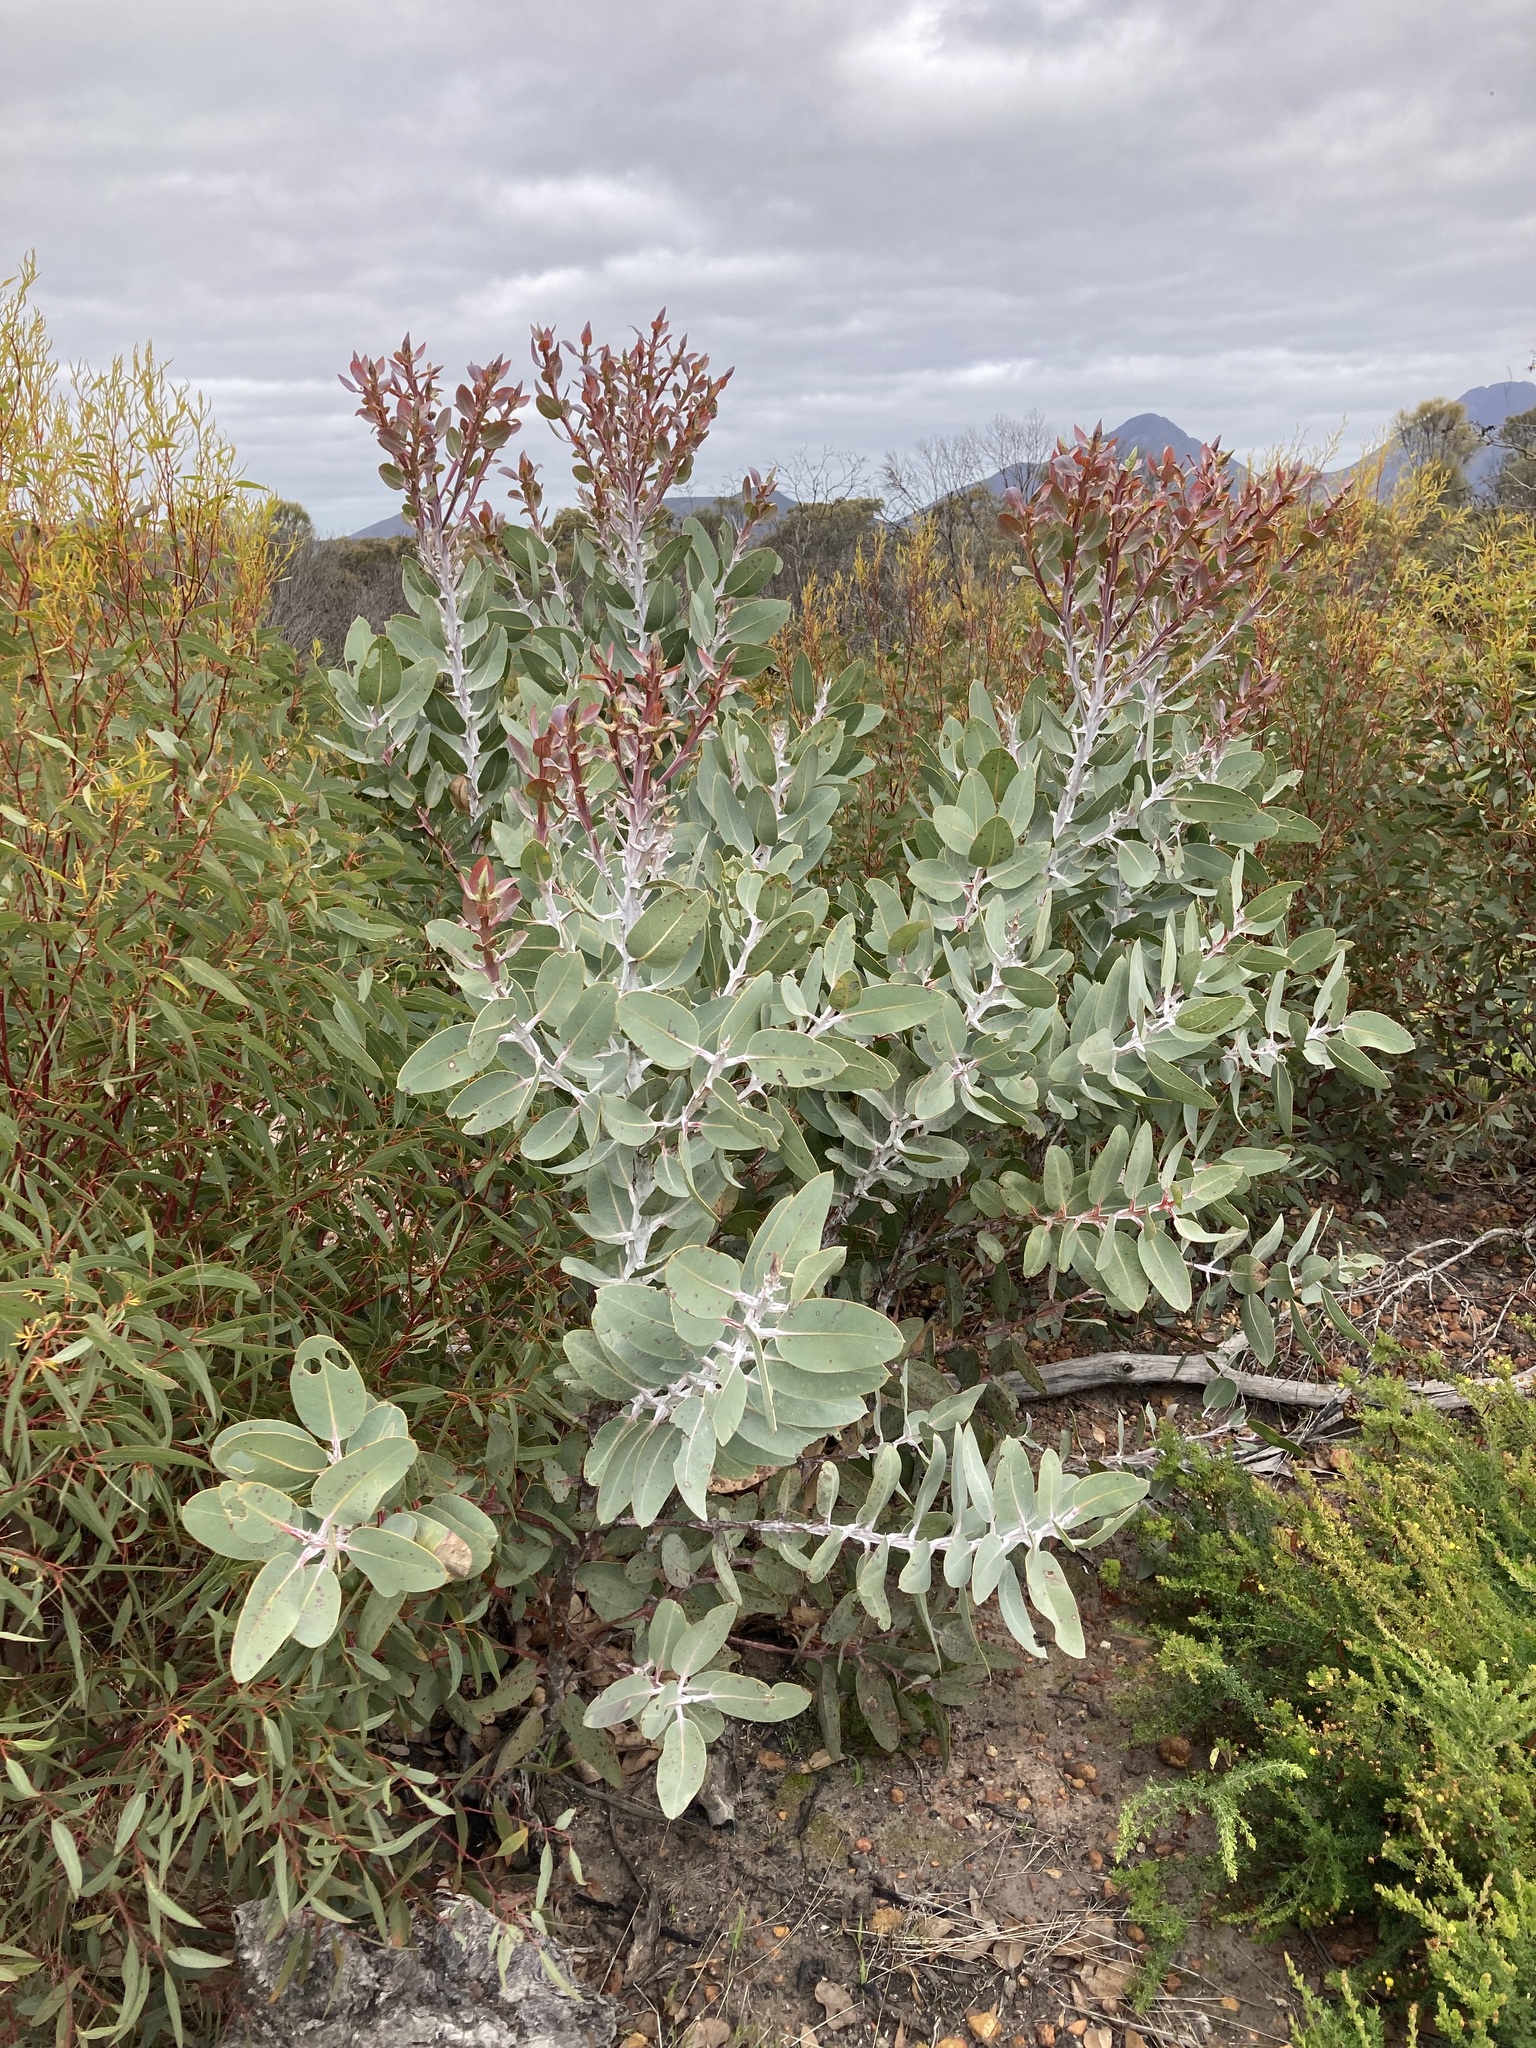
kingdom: Plantae
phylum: Tracheophyta
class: Magnoliopsida
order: Myrtales
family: Myrtaceae
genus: Eucalyptus
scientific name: Eucalyptus tetragona
